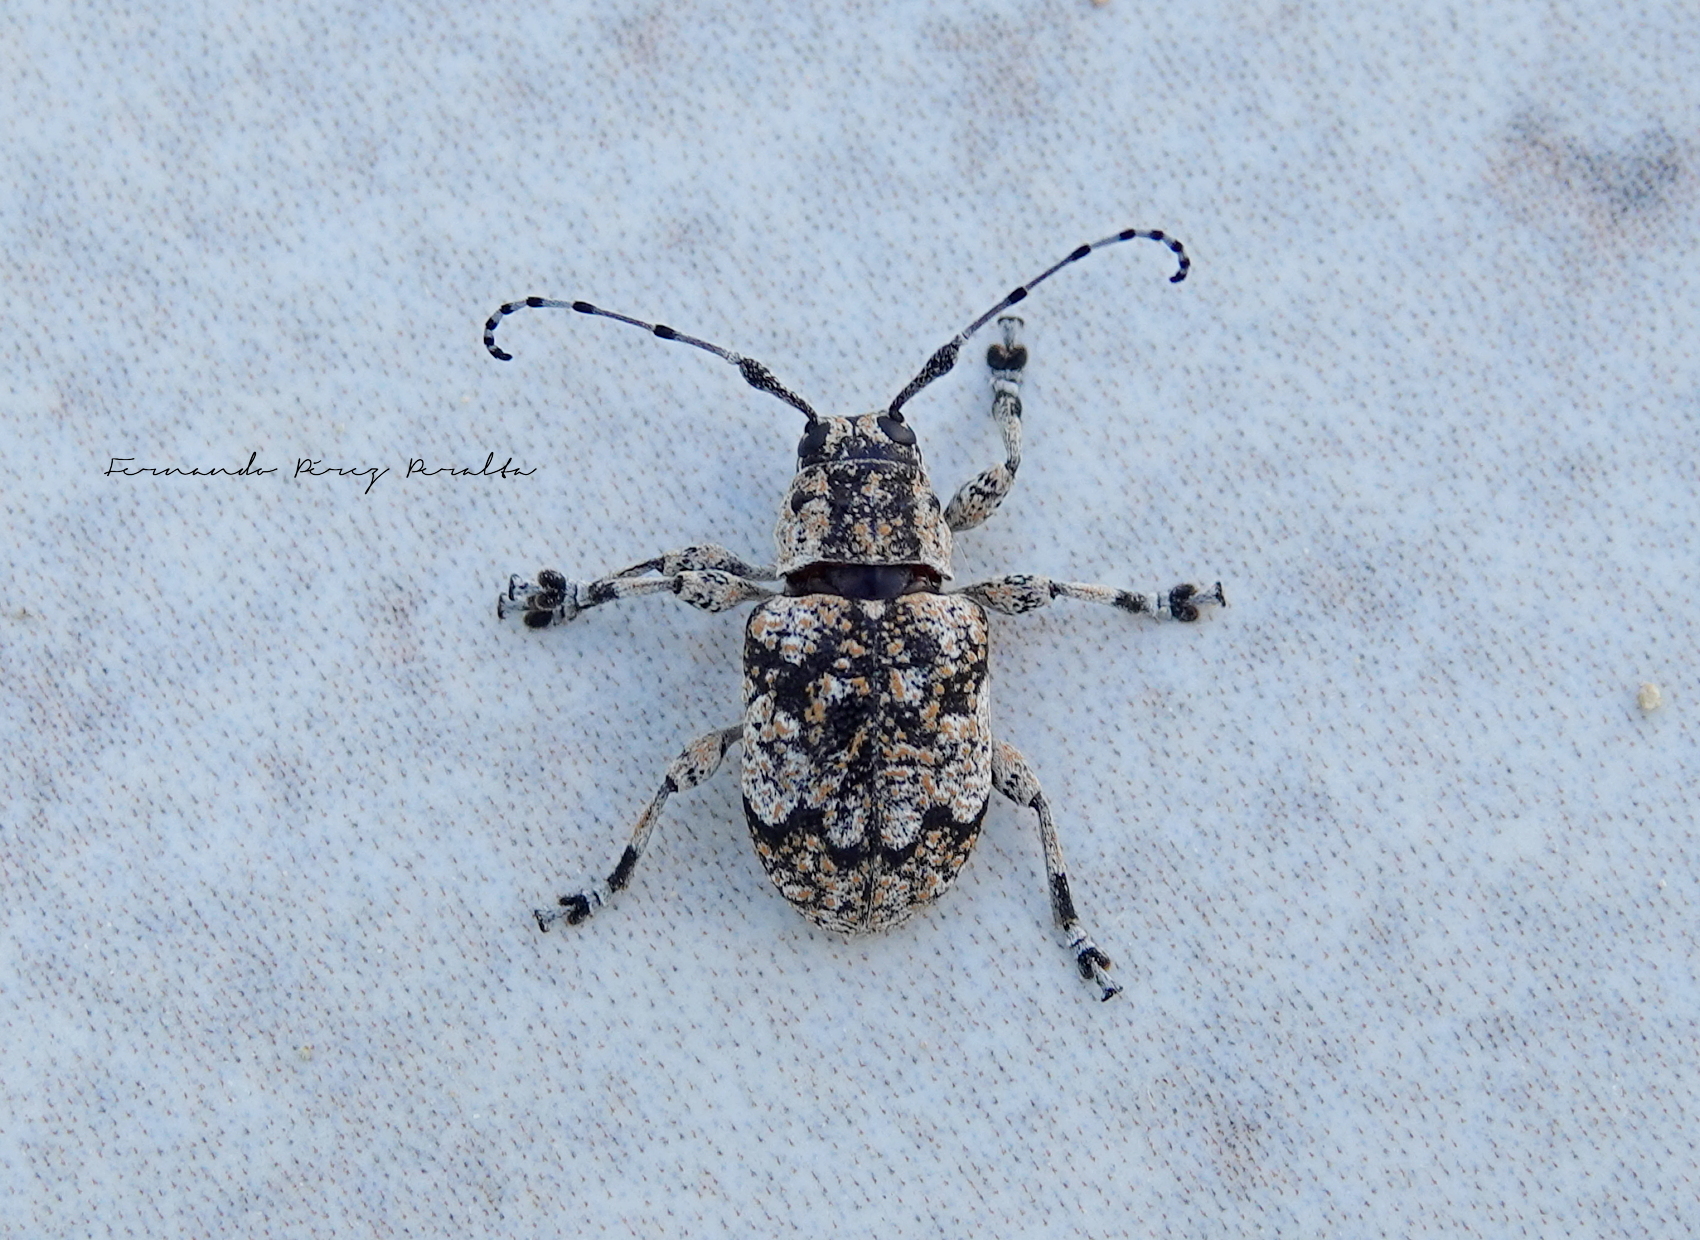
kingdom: Animalia
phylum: Arthropoda
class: Insecta
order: Coleoptera
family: Cerambycidae
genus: Thryallis
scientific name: Thryallis undatus
